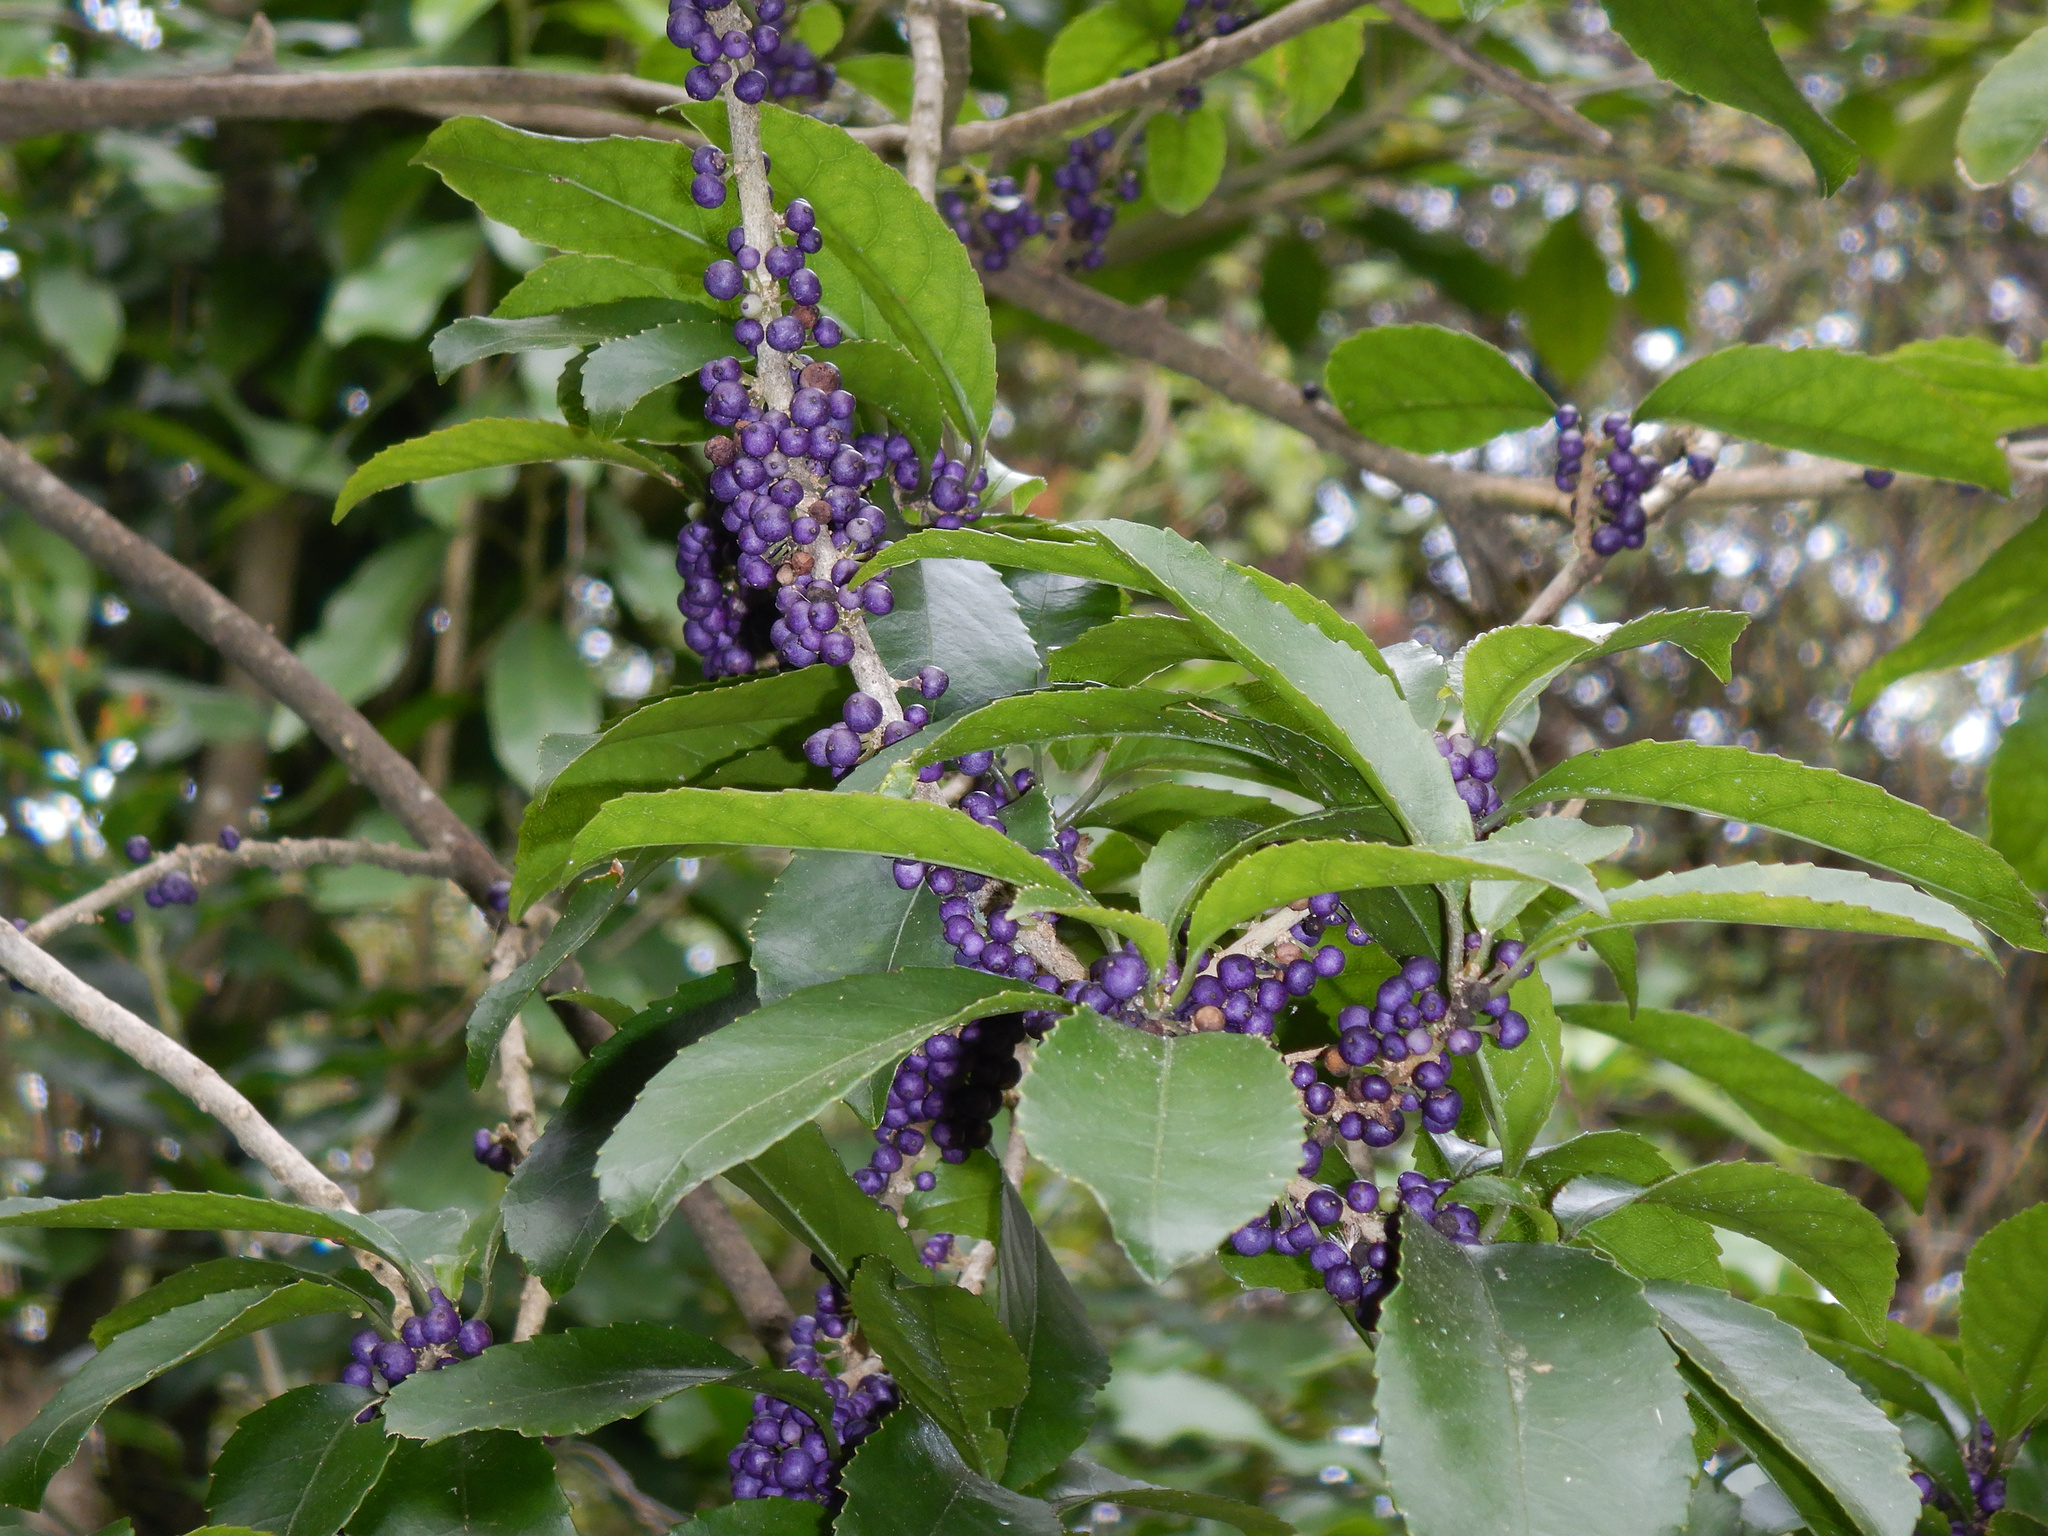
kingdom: Plantae
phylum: Tracheophyta
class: Magnoliopsida
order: Malpighiales
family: Violaceae
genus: Melicytus
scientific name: Melicytus ramiflorus
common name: Mahoe
